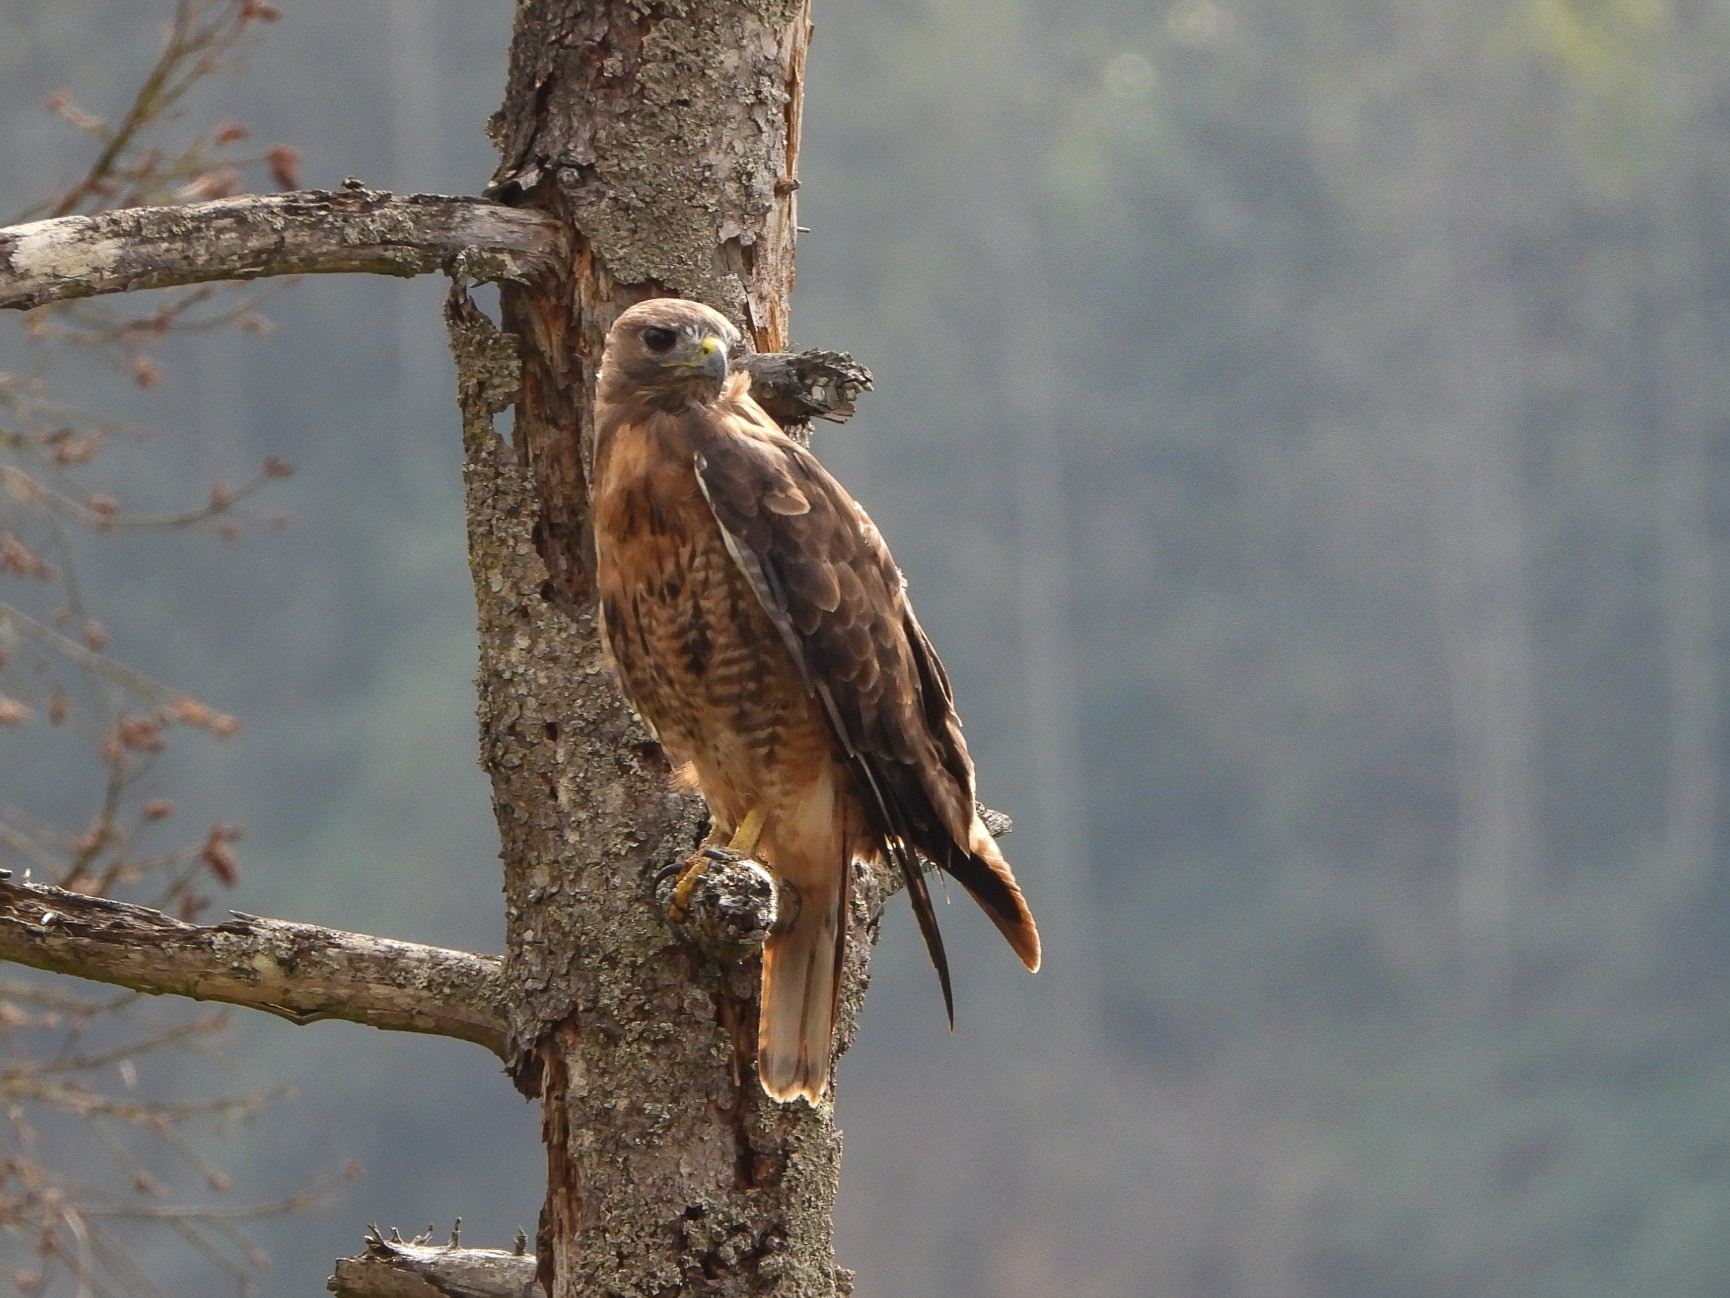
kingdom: Animalia
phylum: Chordata
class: Aves
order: Accipitriformes
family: Accipitridae
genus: Buteo
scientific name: Buteo jamaicensis
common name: Red-tailed hawk
